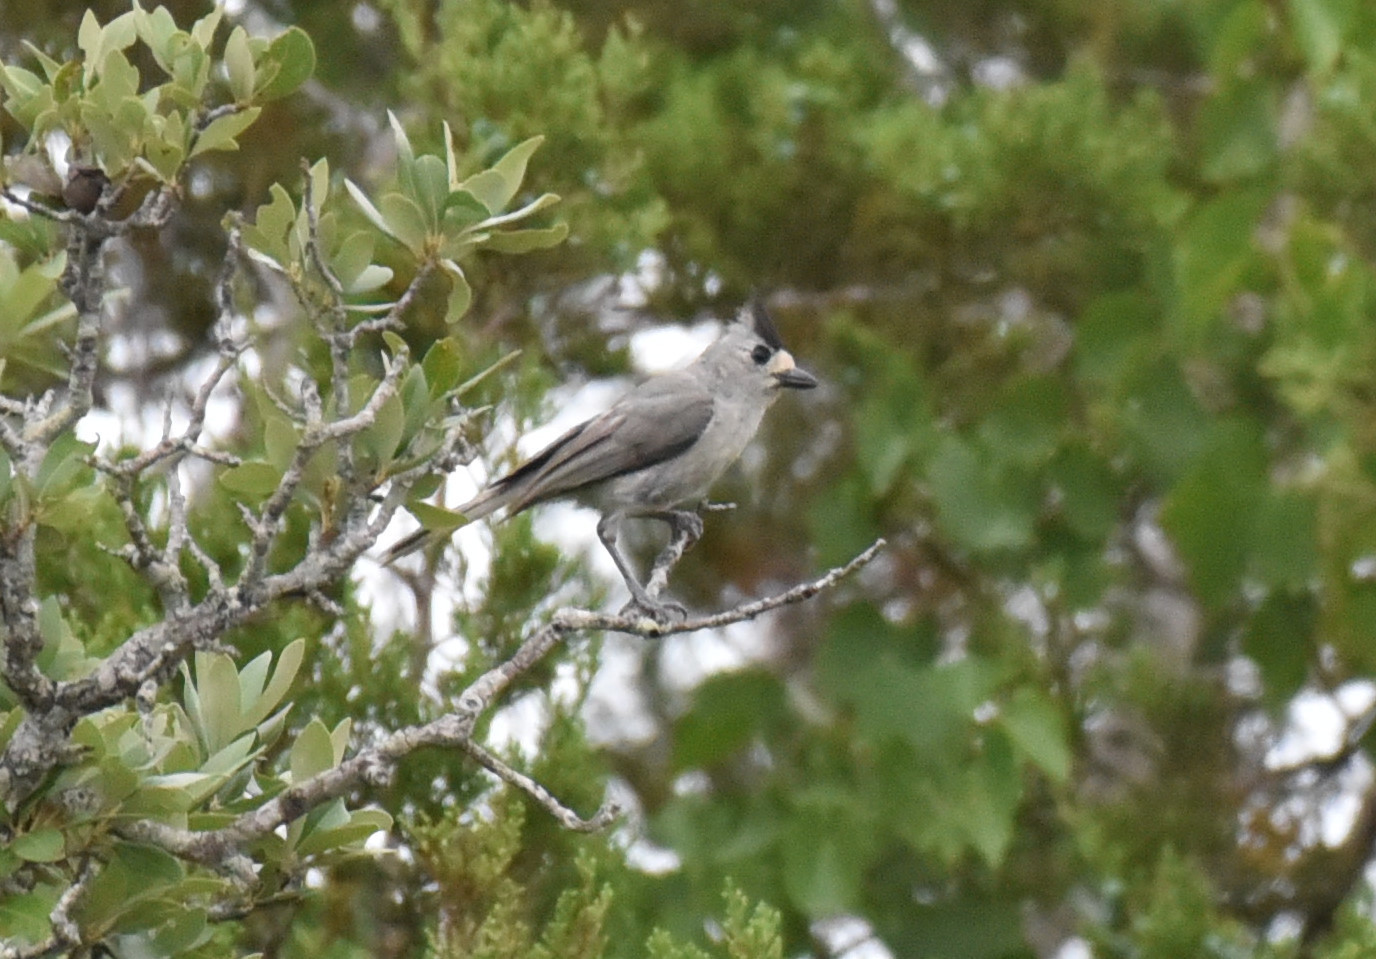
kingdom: Animalia
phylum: Chordata
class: Aves
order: Passeriformes
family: Paridae
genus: Baeolophus
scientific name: Baeolophus atricristatus
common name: Black-crested titmouse
